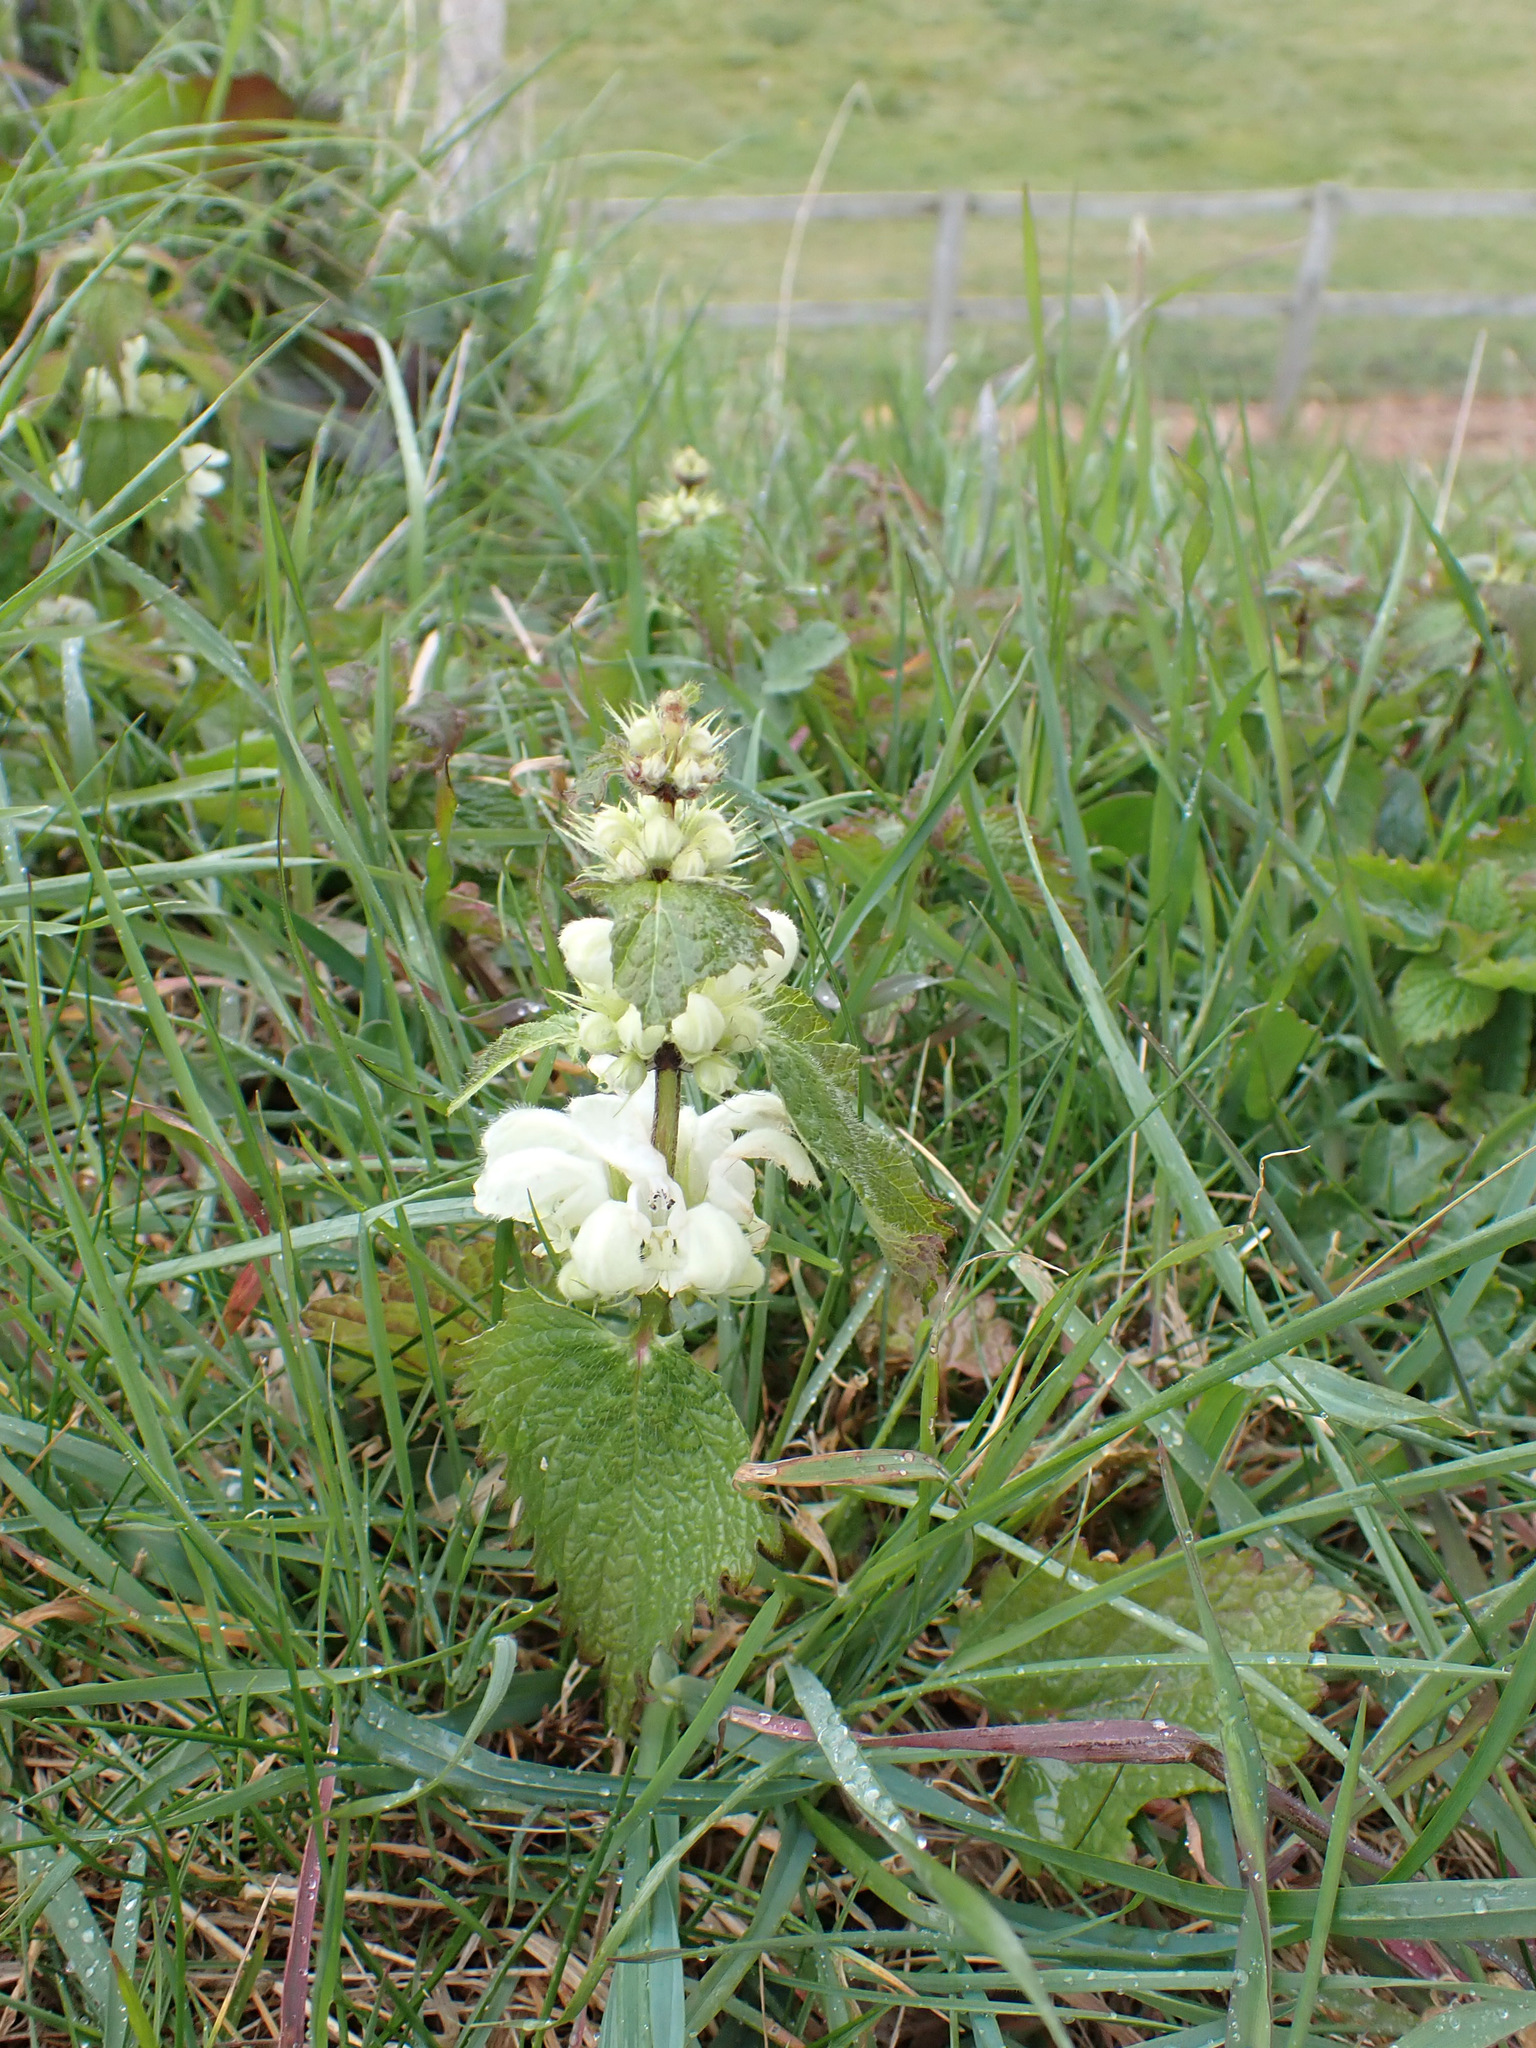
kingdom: Plantae
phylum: Tracheophyta
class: Magnoliopsida
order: Lamiales
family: Lamiaceae
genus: Lamium
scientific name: Lamium album
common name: White dead-nettle
